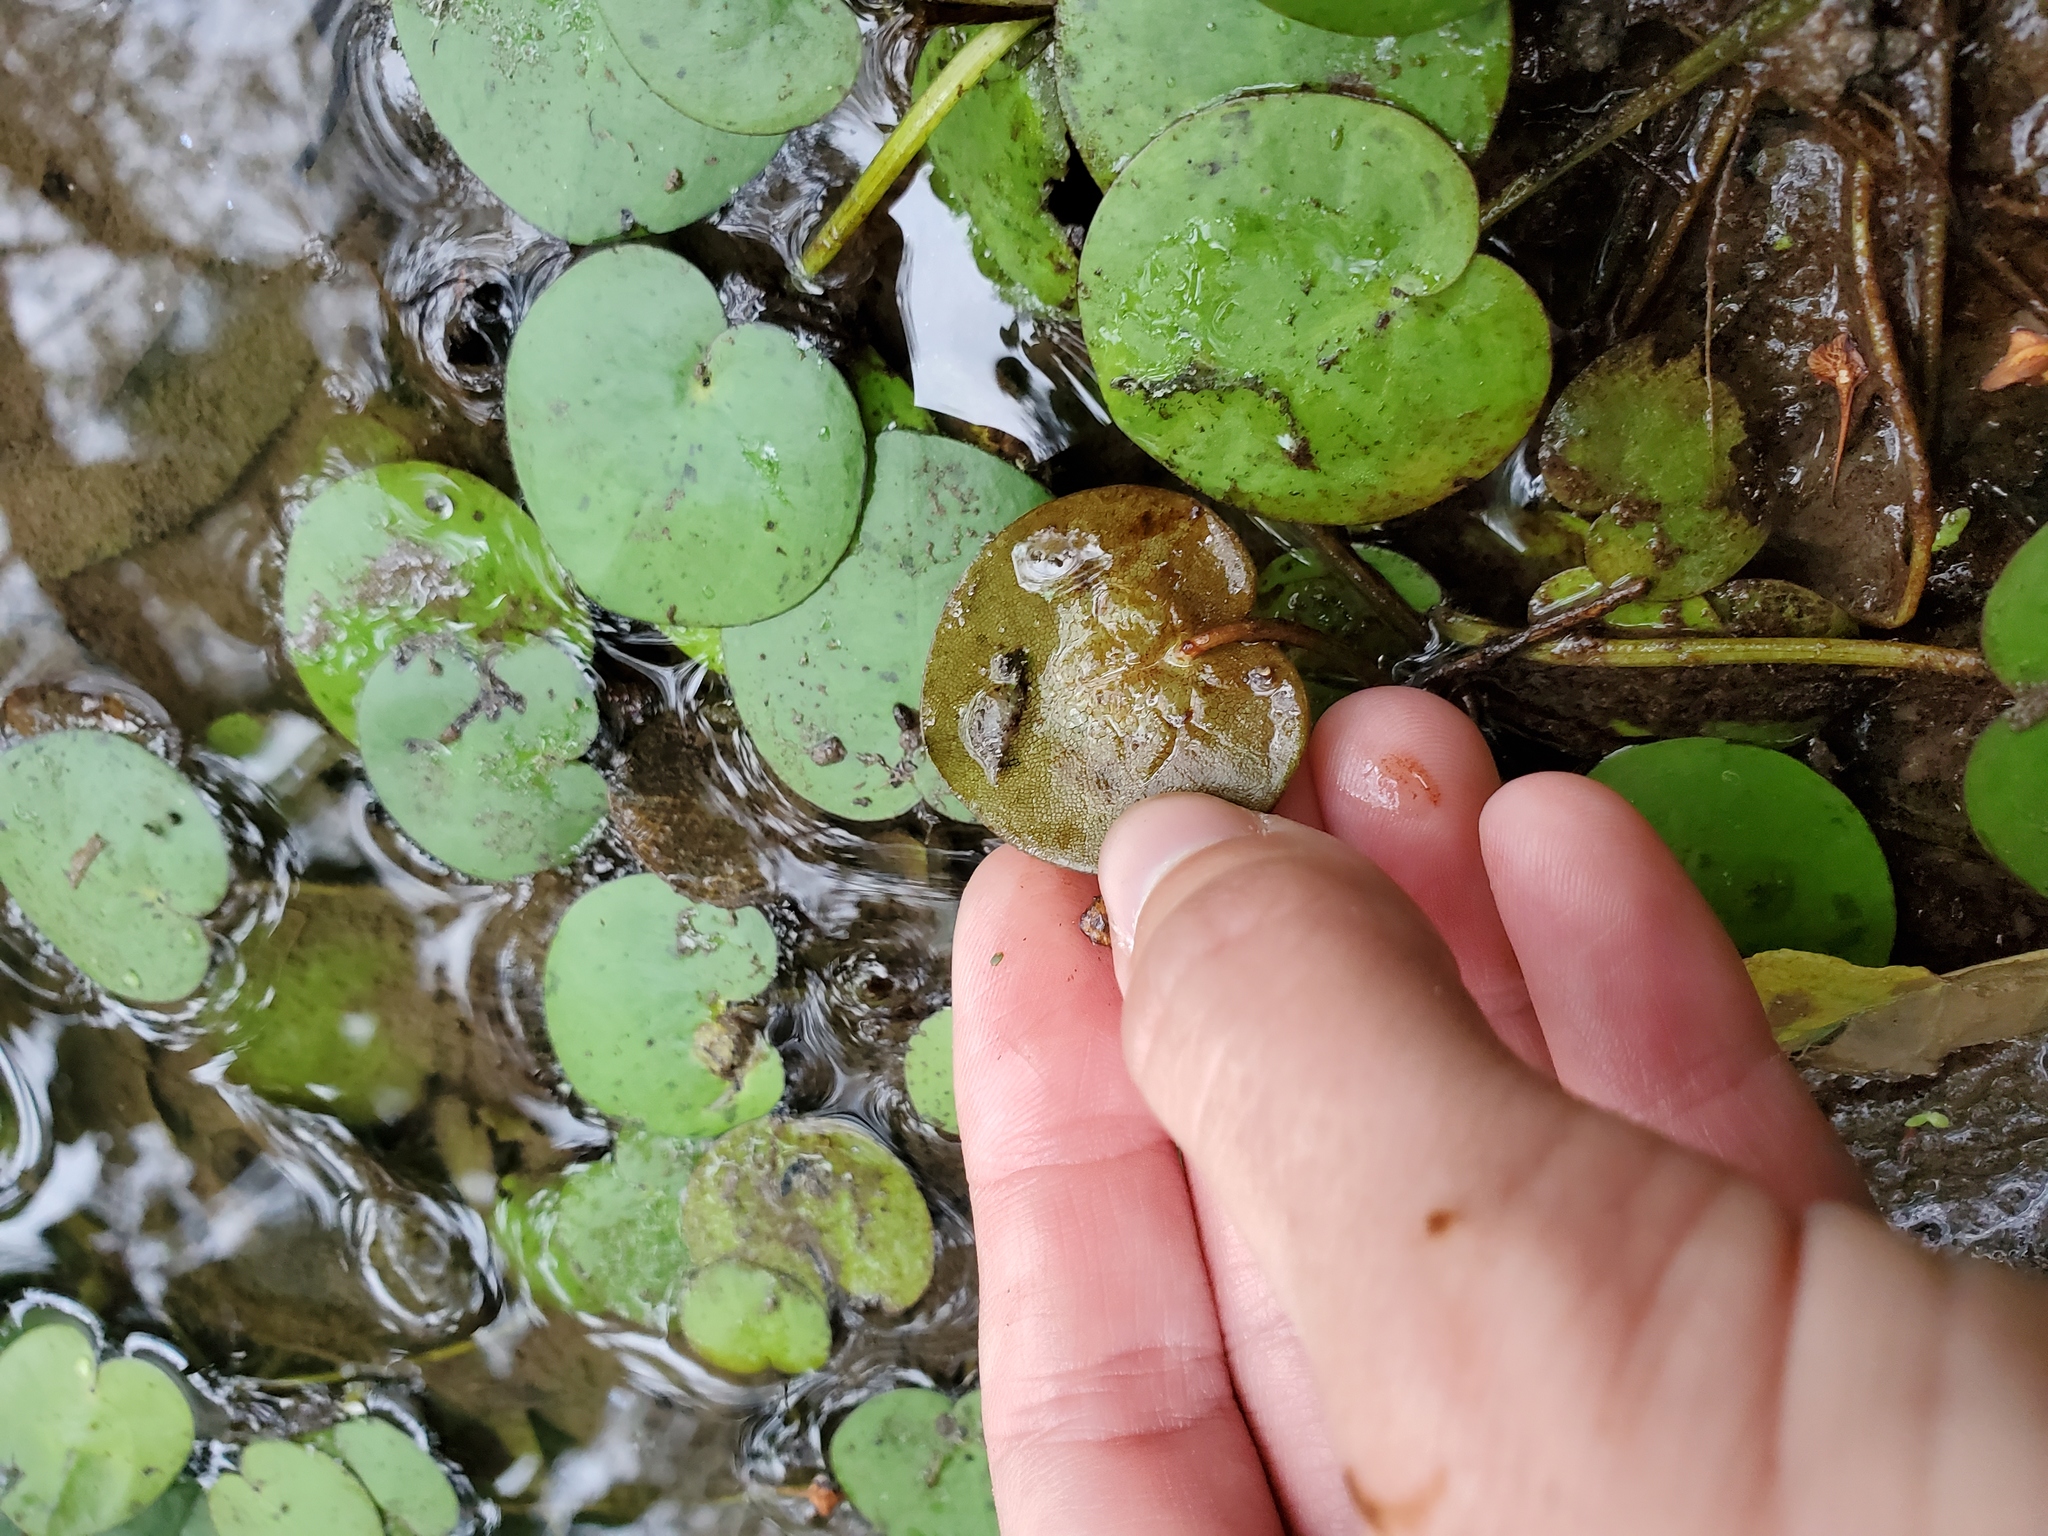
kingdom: Plantae
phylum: Tracheophyta
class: Liliopsida
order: Alismatales
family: Hydrocharitaceae
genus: Hydrocharis
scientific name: Hydrocharis spongia
